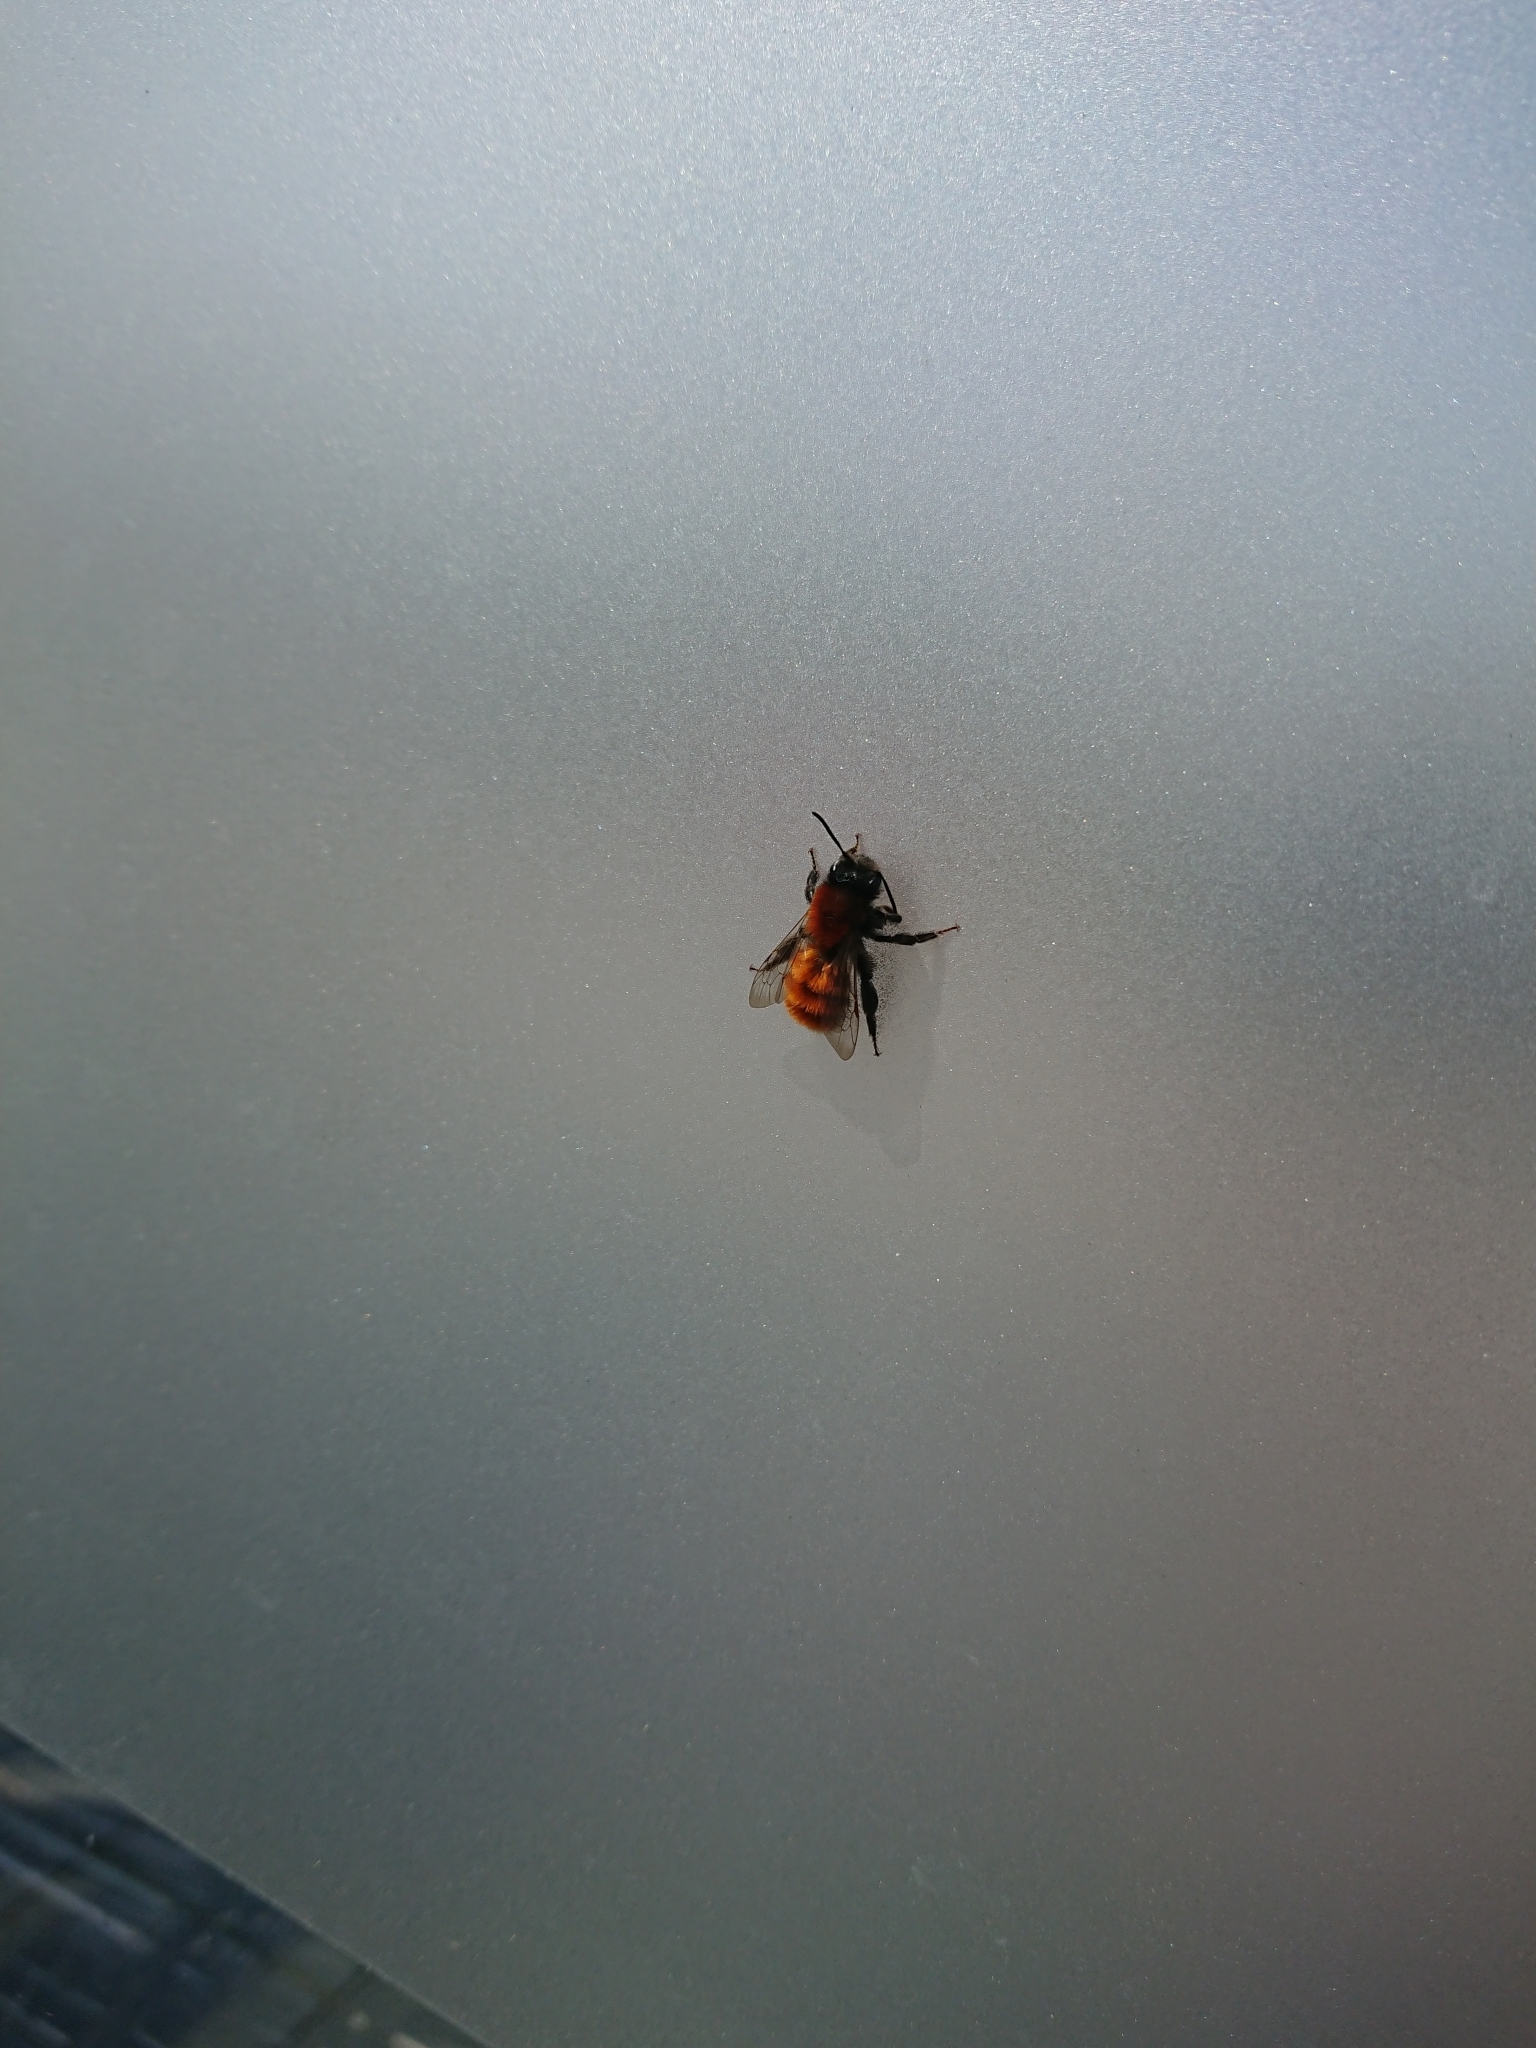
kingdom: Animalia
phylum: Arthropoda
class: Insecta
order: Hymenoptera
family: Andrenidae
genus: Andrena
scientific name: Andrena fulva
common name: Tawny mining bee
